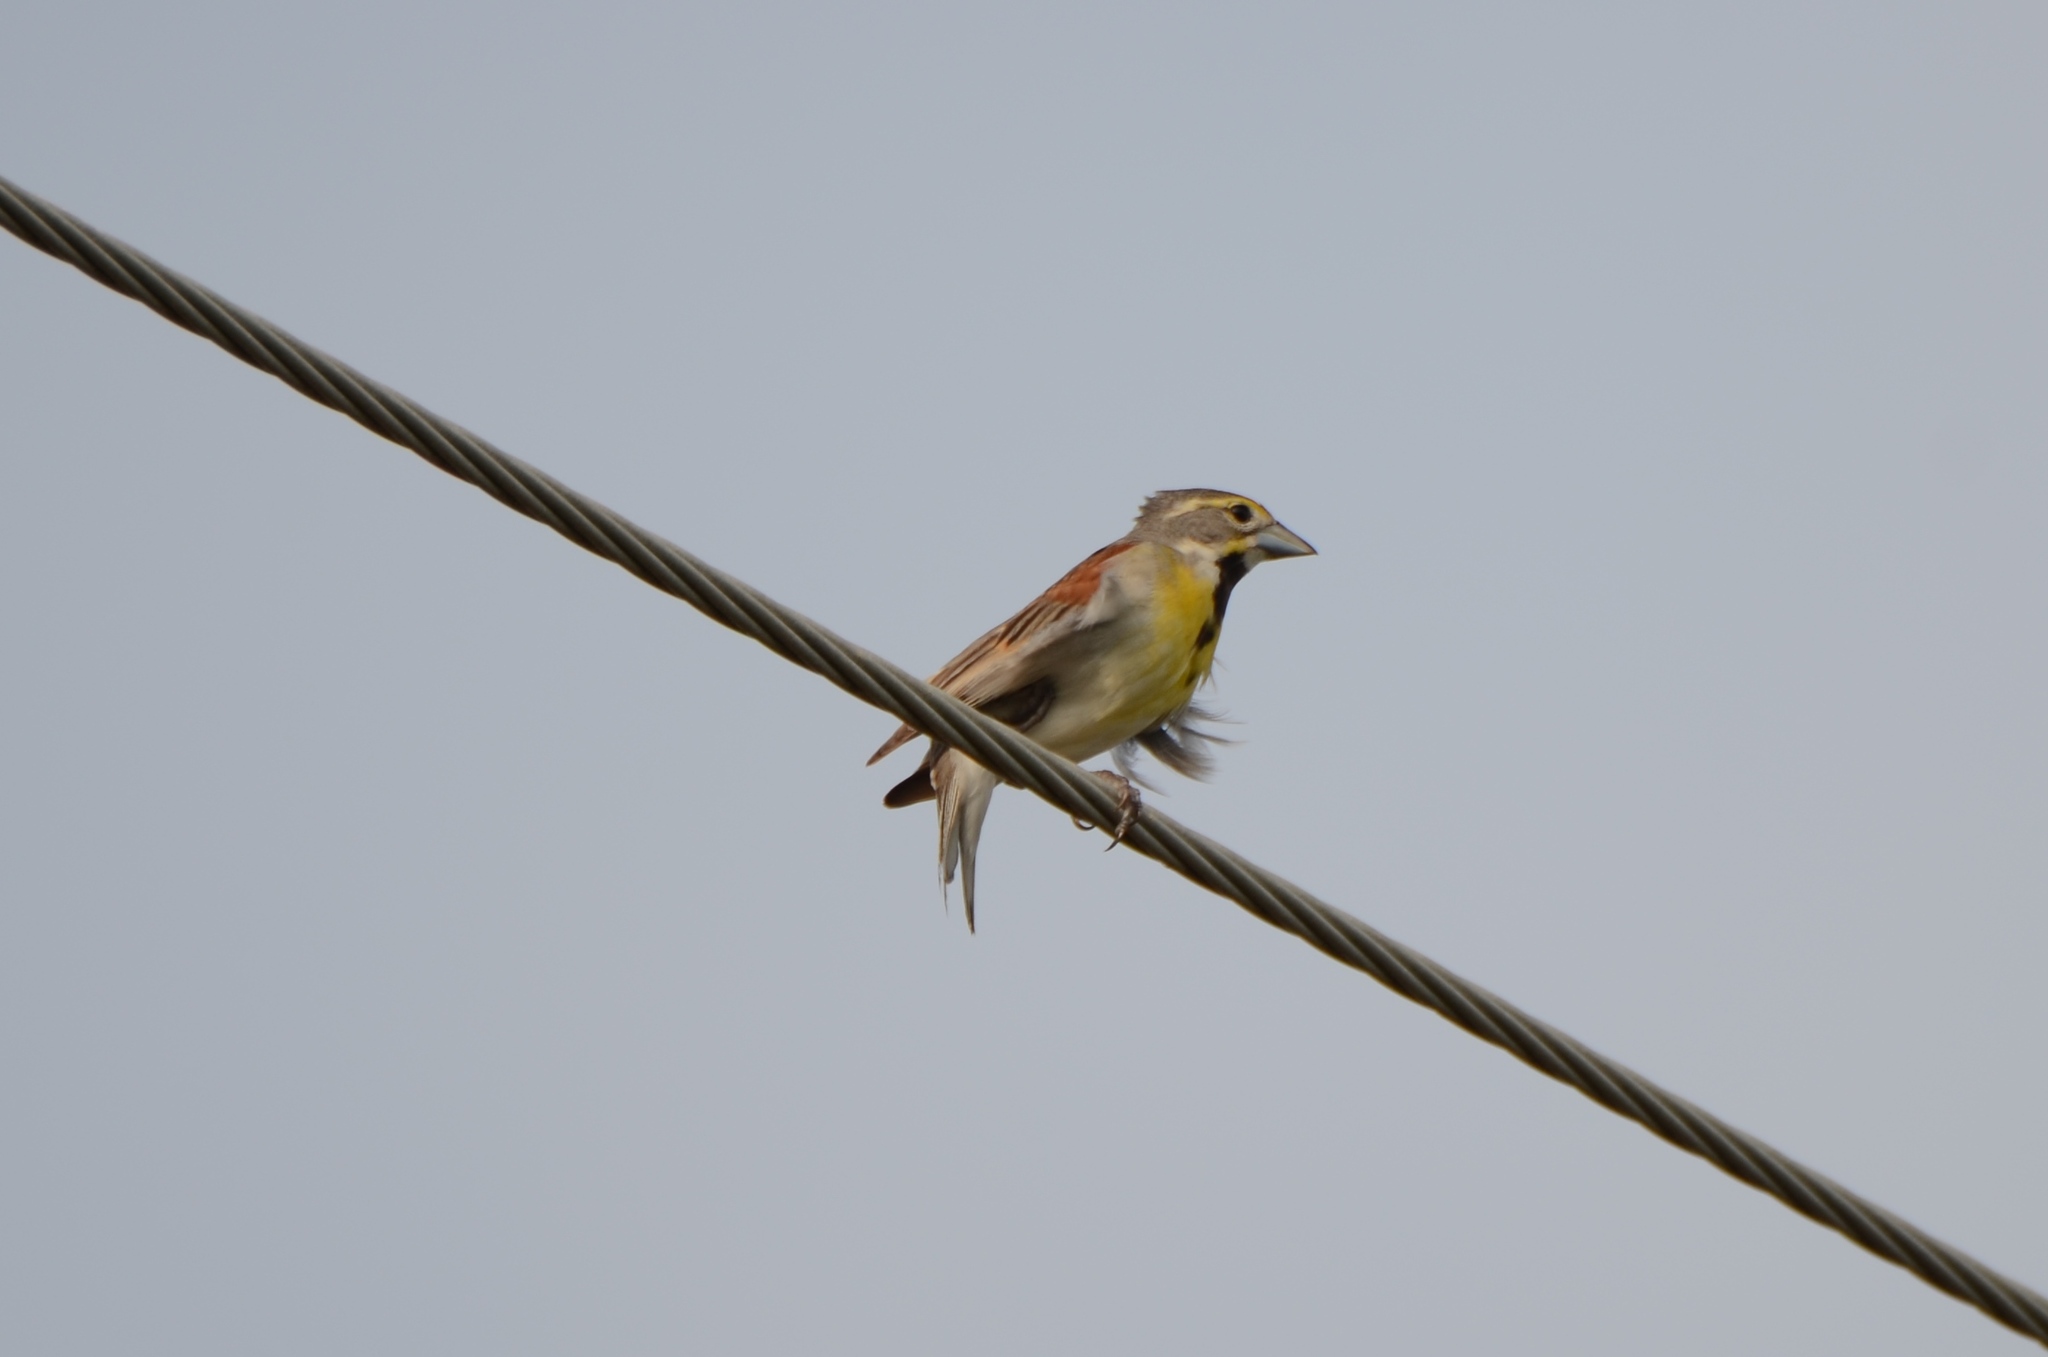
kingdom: Animalia
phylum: Chordata
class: Aves
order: Passeriformes
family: Cardinalidae
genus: Spiza
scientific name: Spiza americana
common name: Dickcissel
